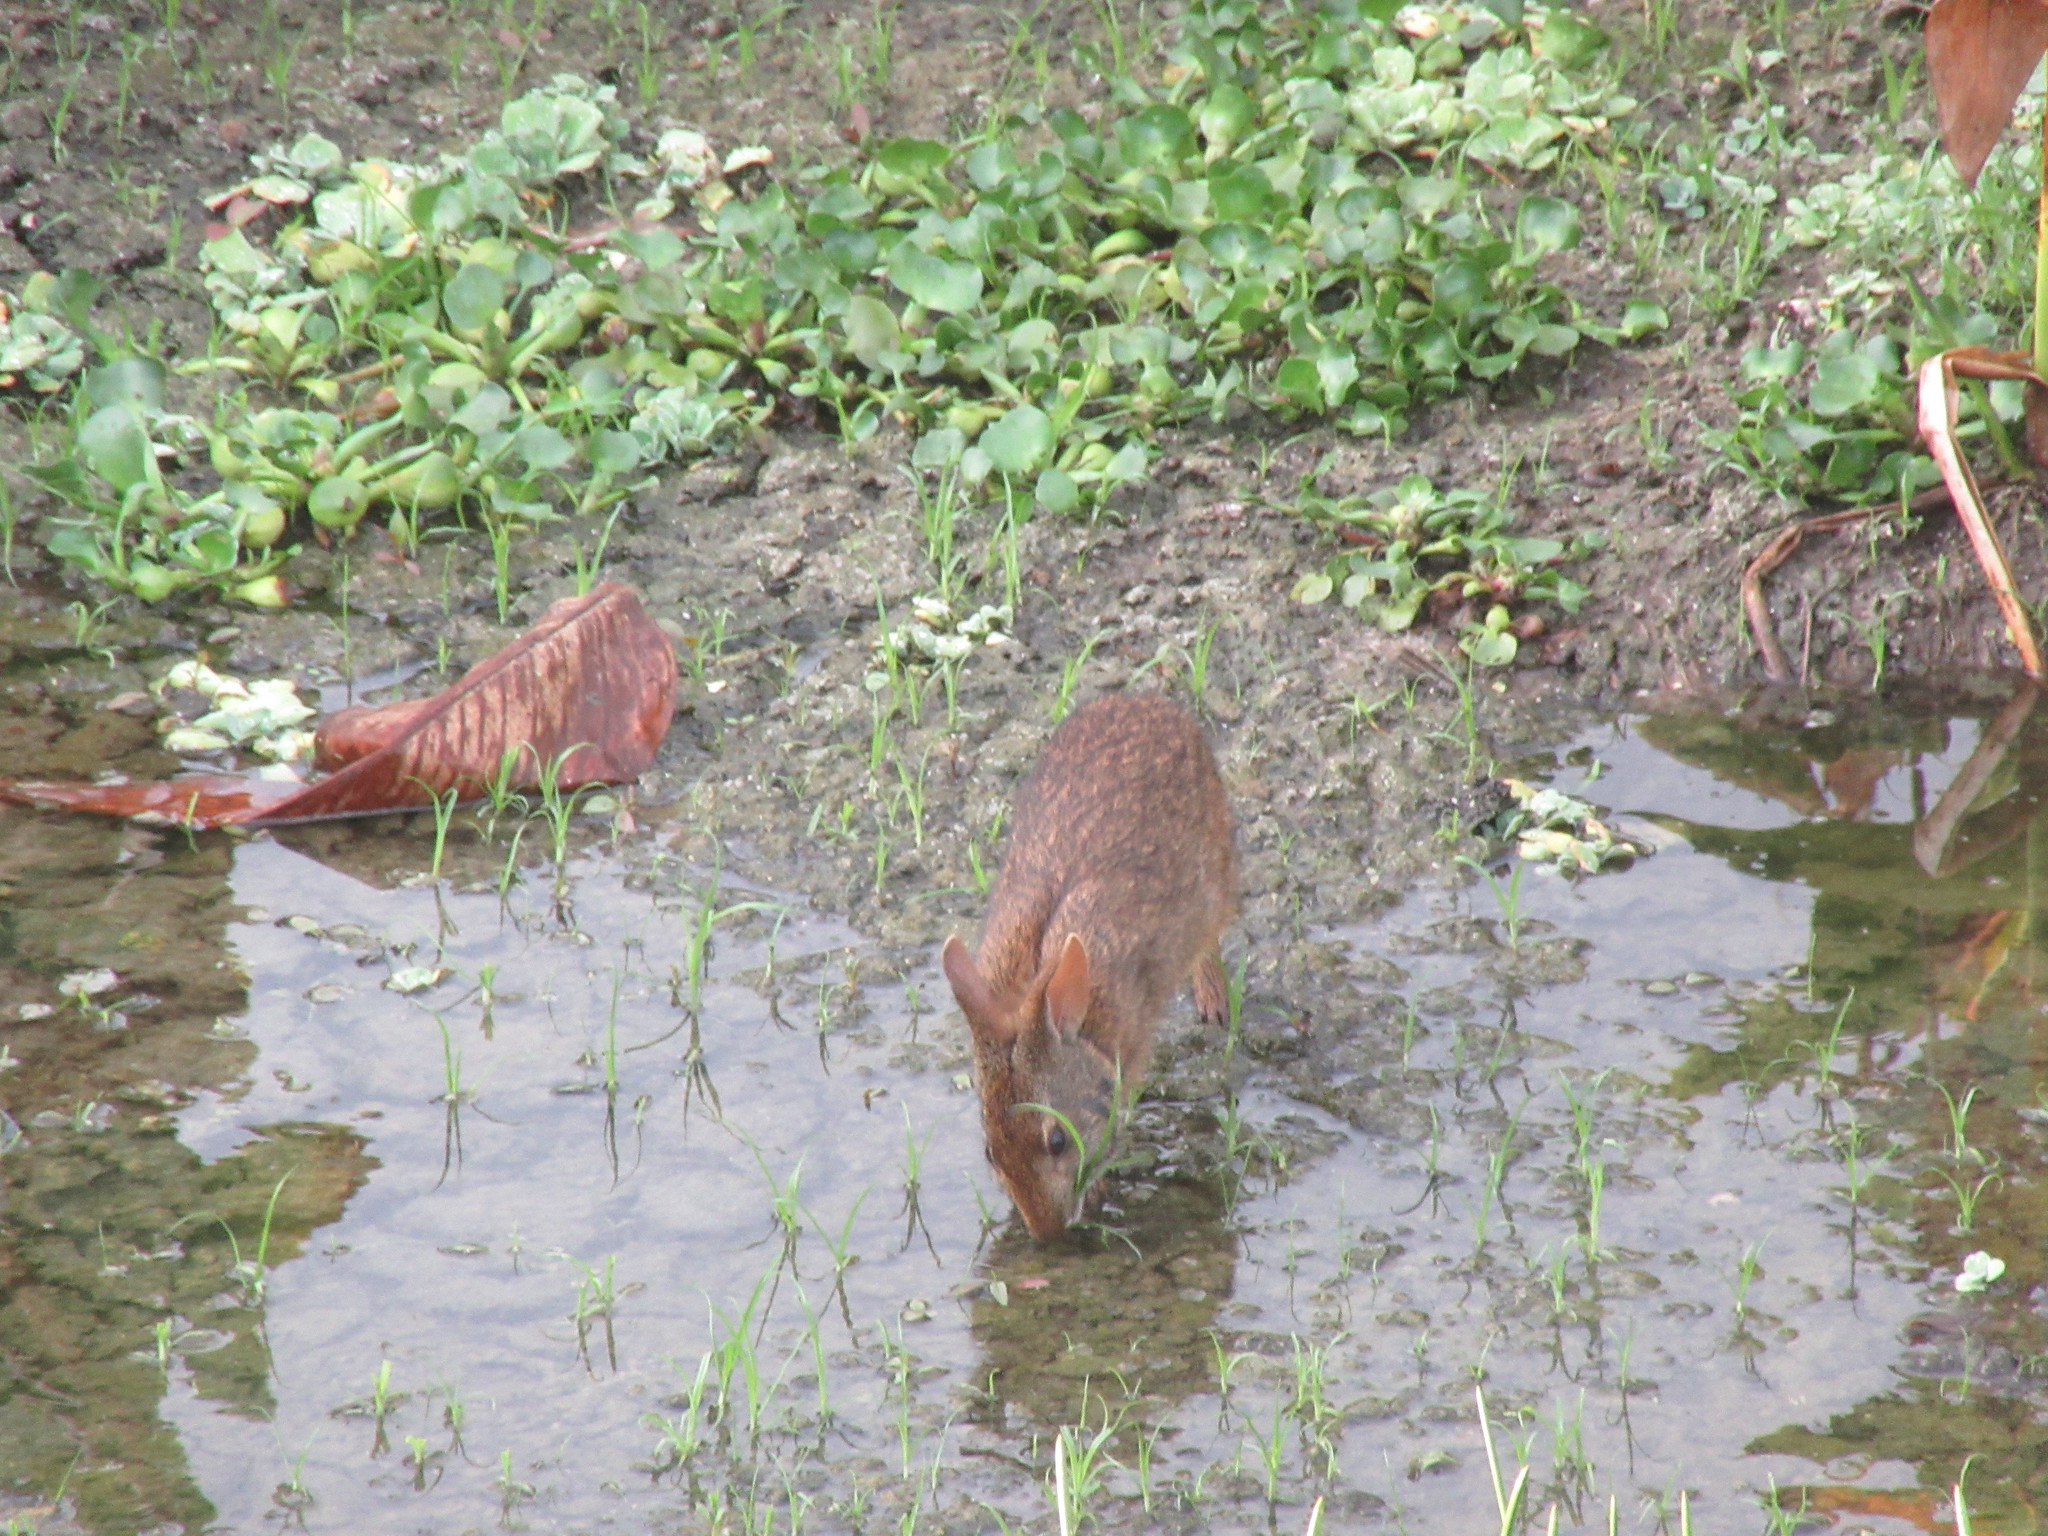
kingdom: Animalia
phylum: Chordata
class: Mammalia
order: Lagomorpha
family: Leporidae
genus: Sylvilagus
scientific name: Sylvilagus palustris
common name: Marsh rabbit
